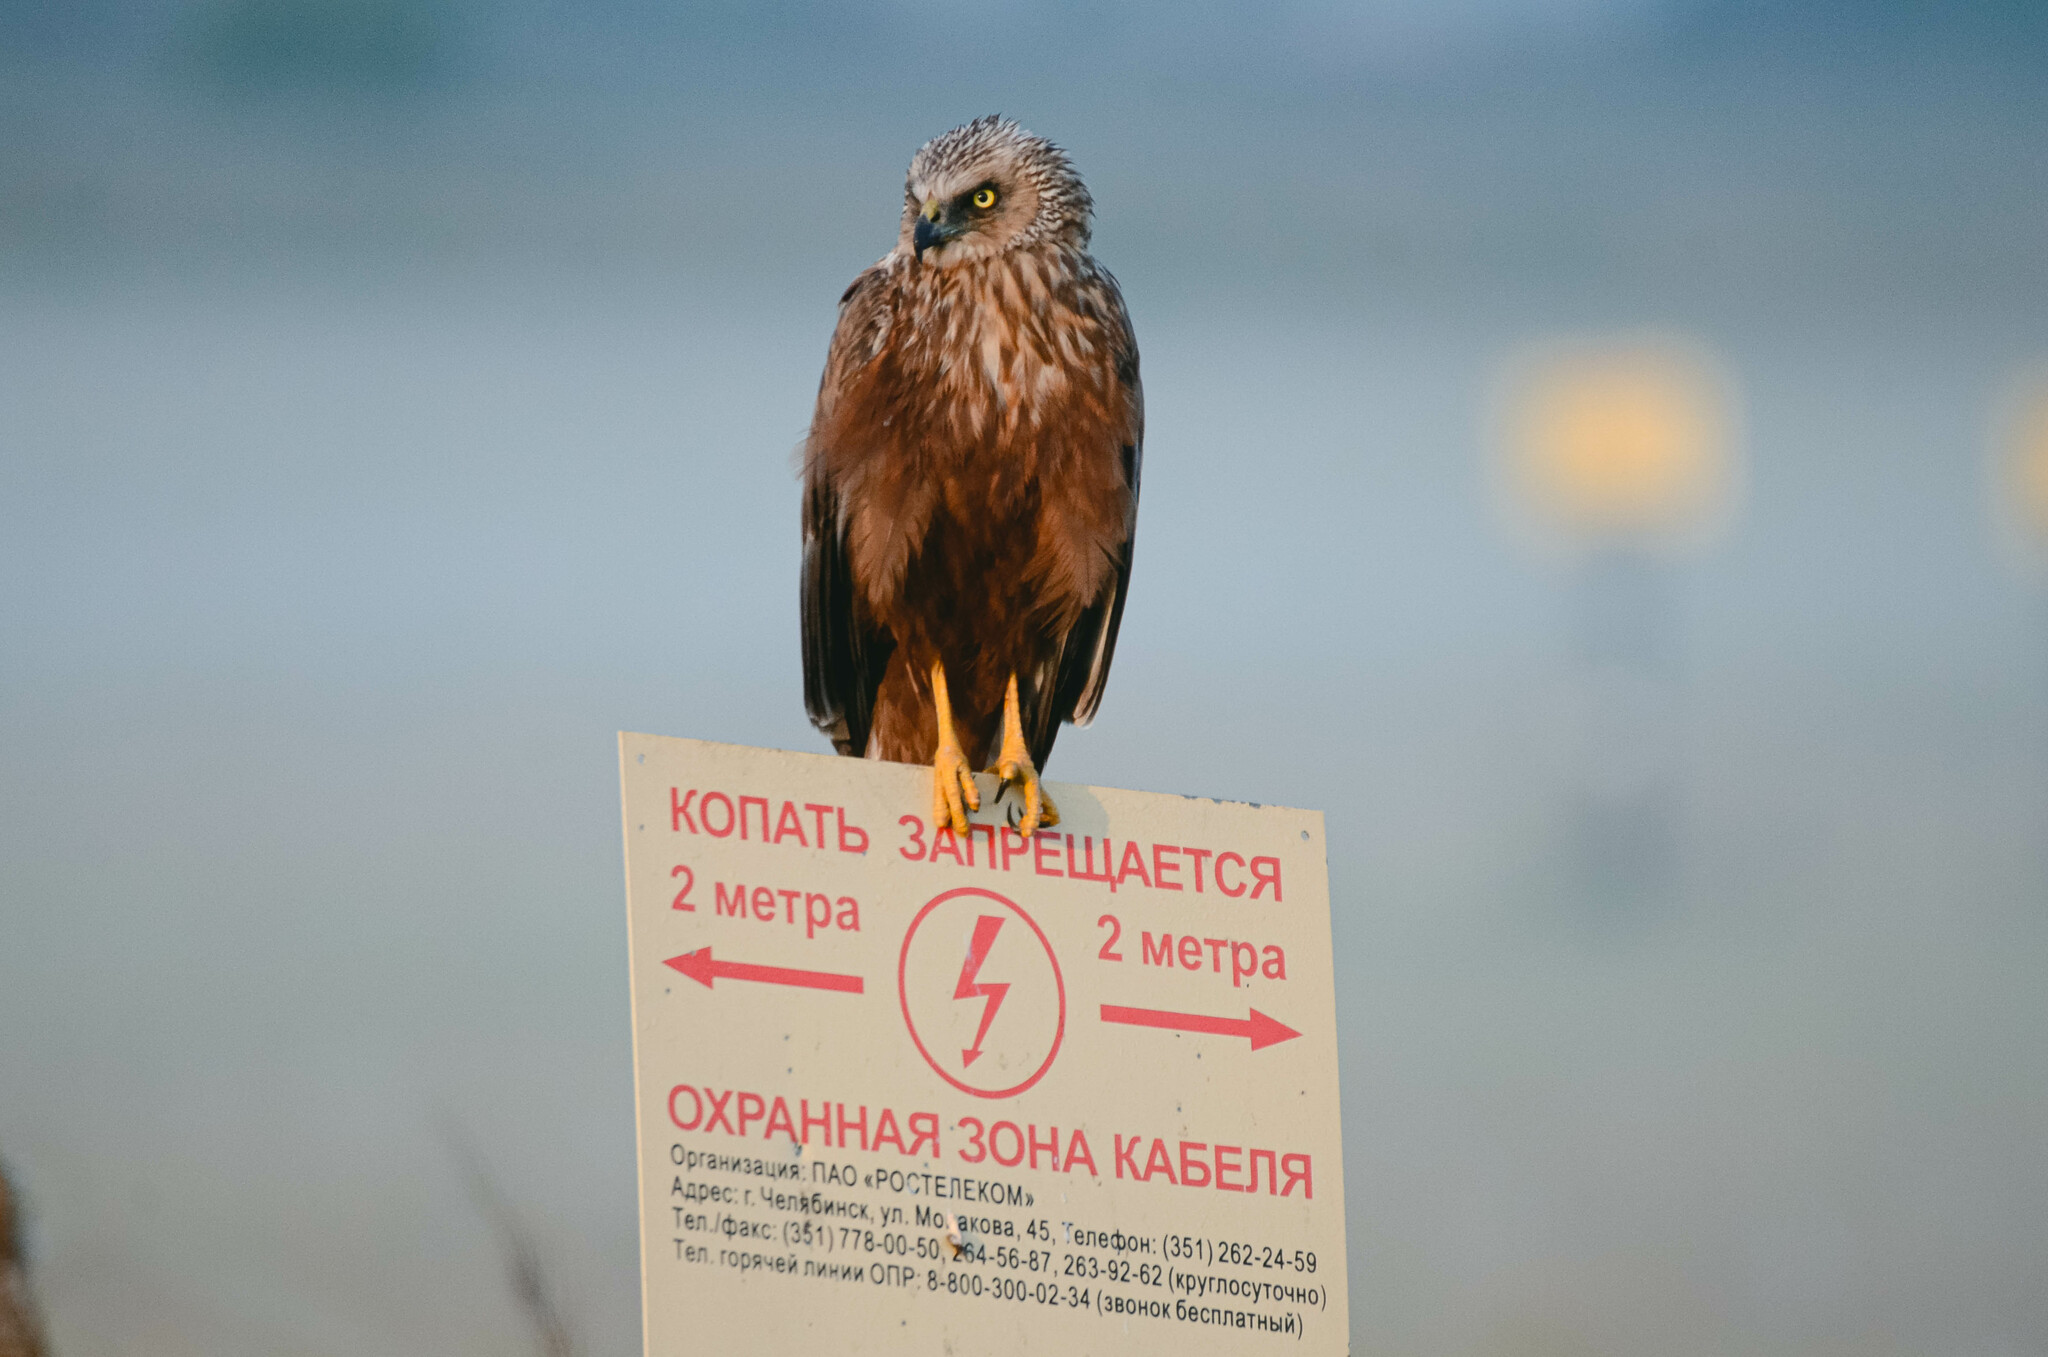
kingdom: Animalia
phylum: Chordata
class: Aves
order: Accipitriformes
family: Accipitridae
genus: Circus
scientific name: Circus aeruginosus
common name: Western marsh harrier
